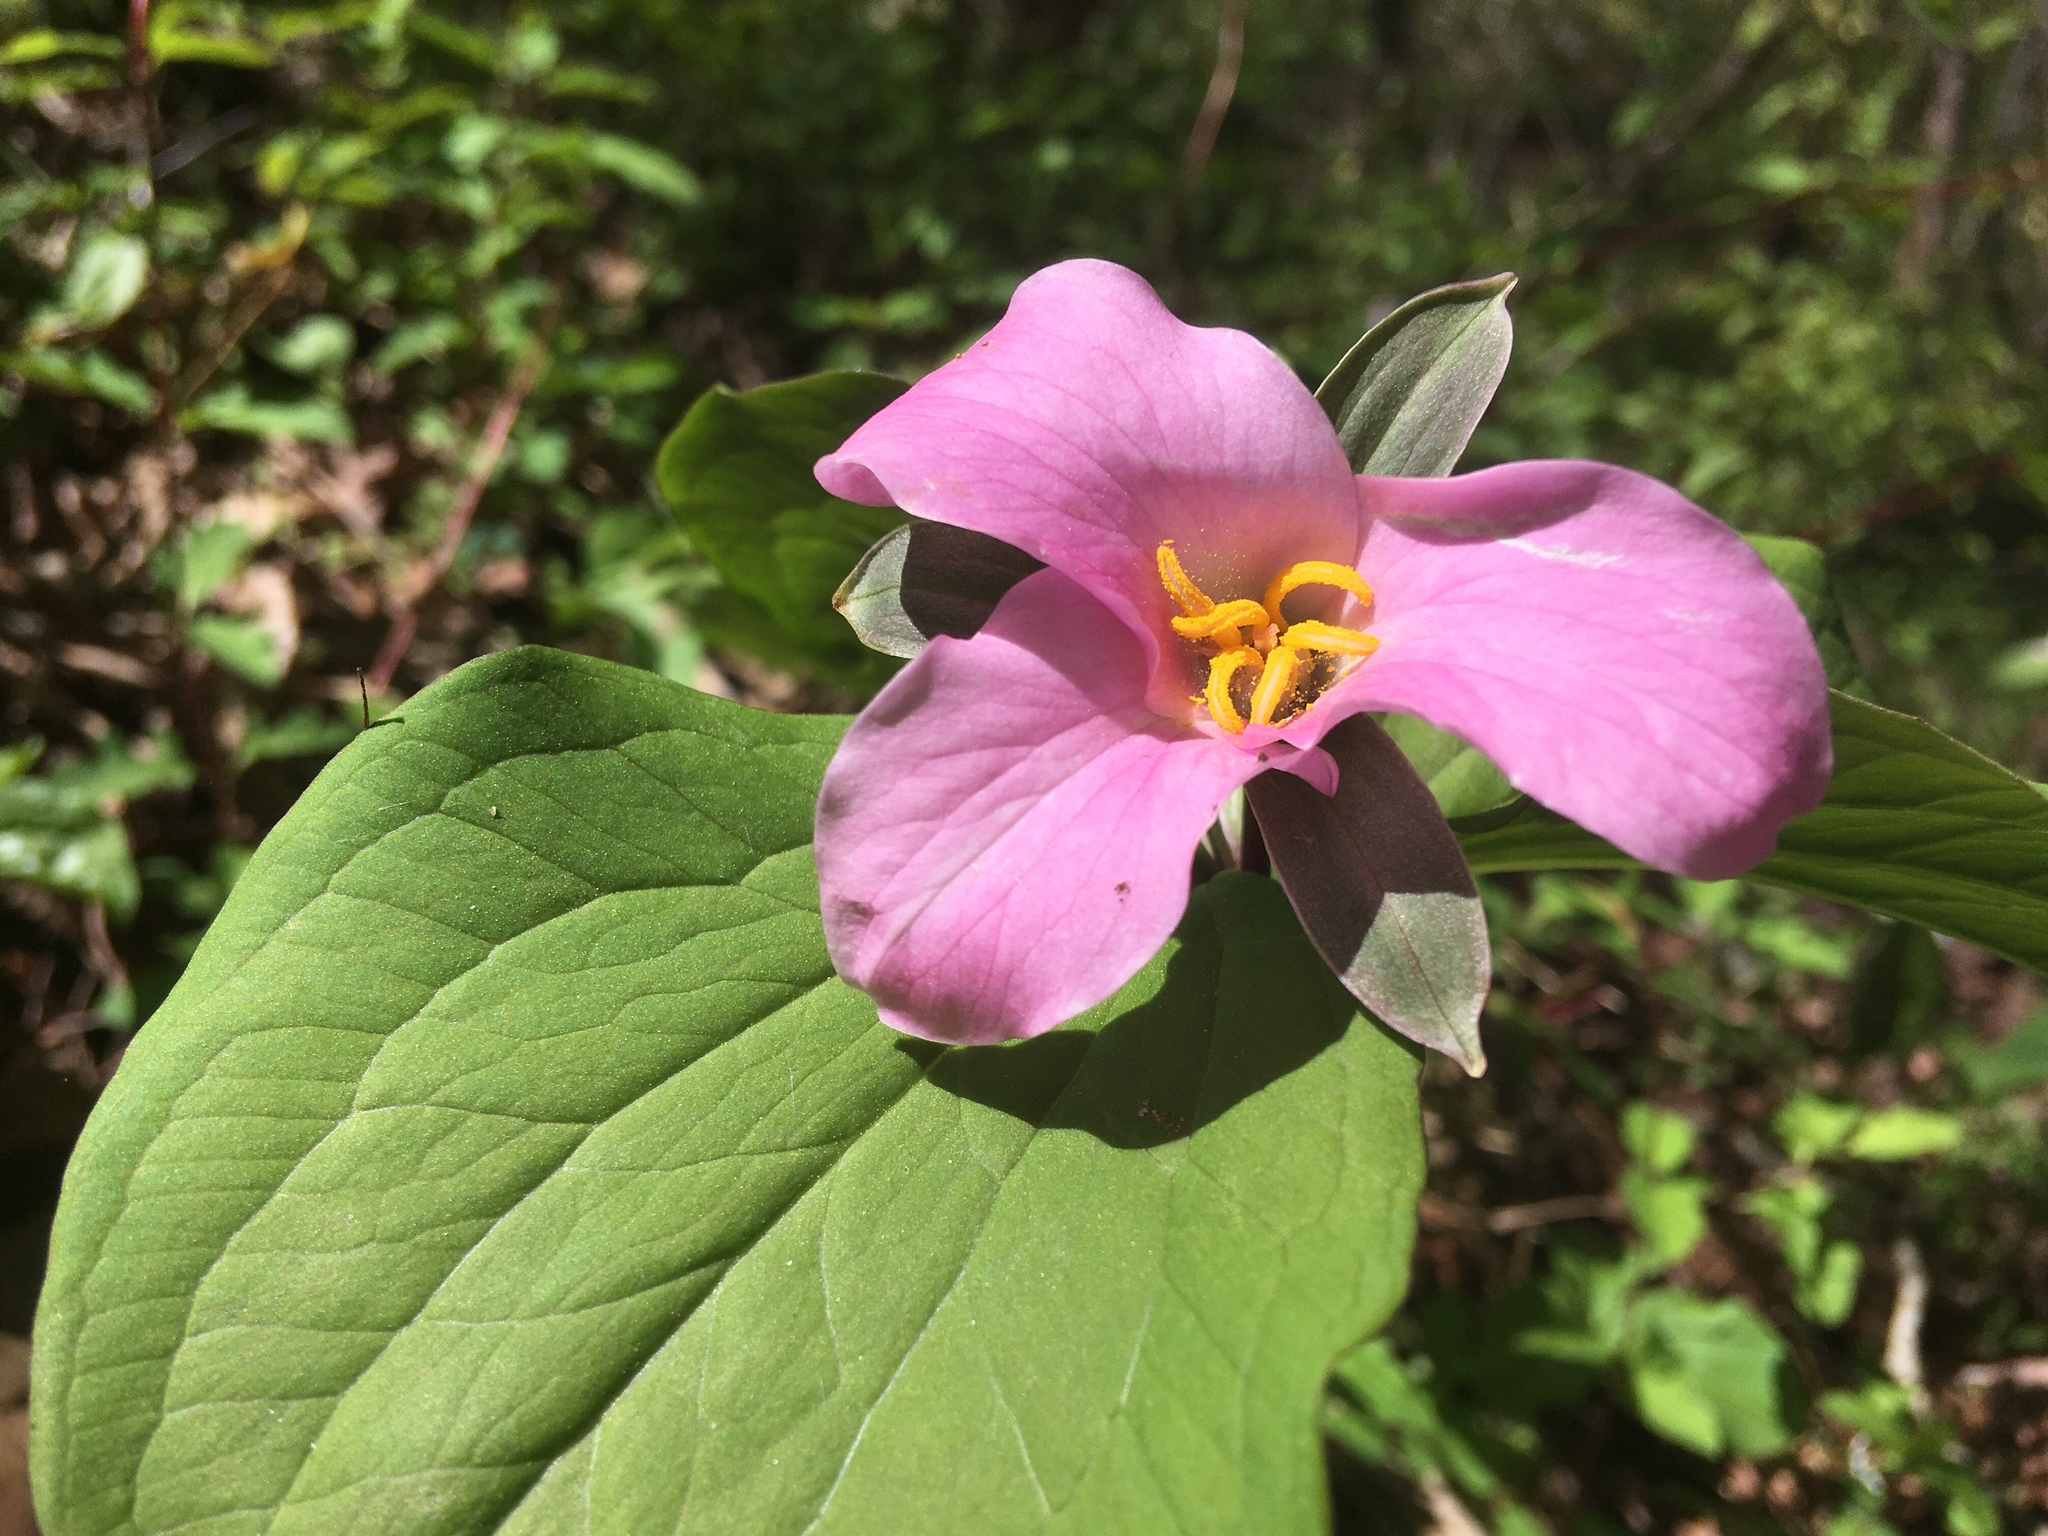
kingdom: Plantae
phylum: Tracheophyta
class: Liliopsida
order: Liliales
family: Melanthiaceae
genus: Trillium
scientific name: Trillium catesbaei
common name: Bashful trillium
